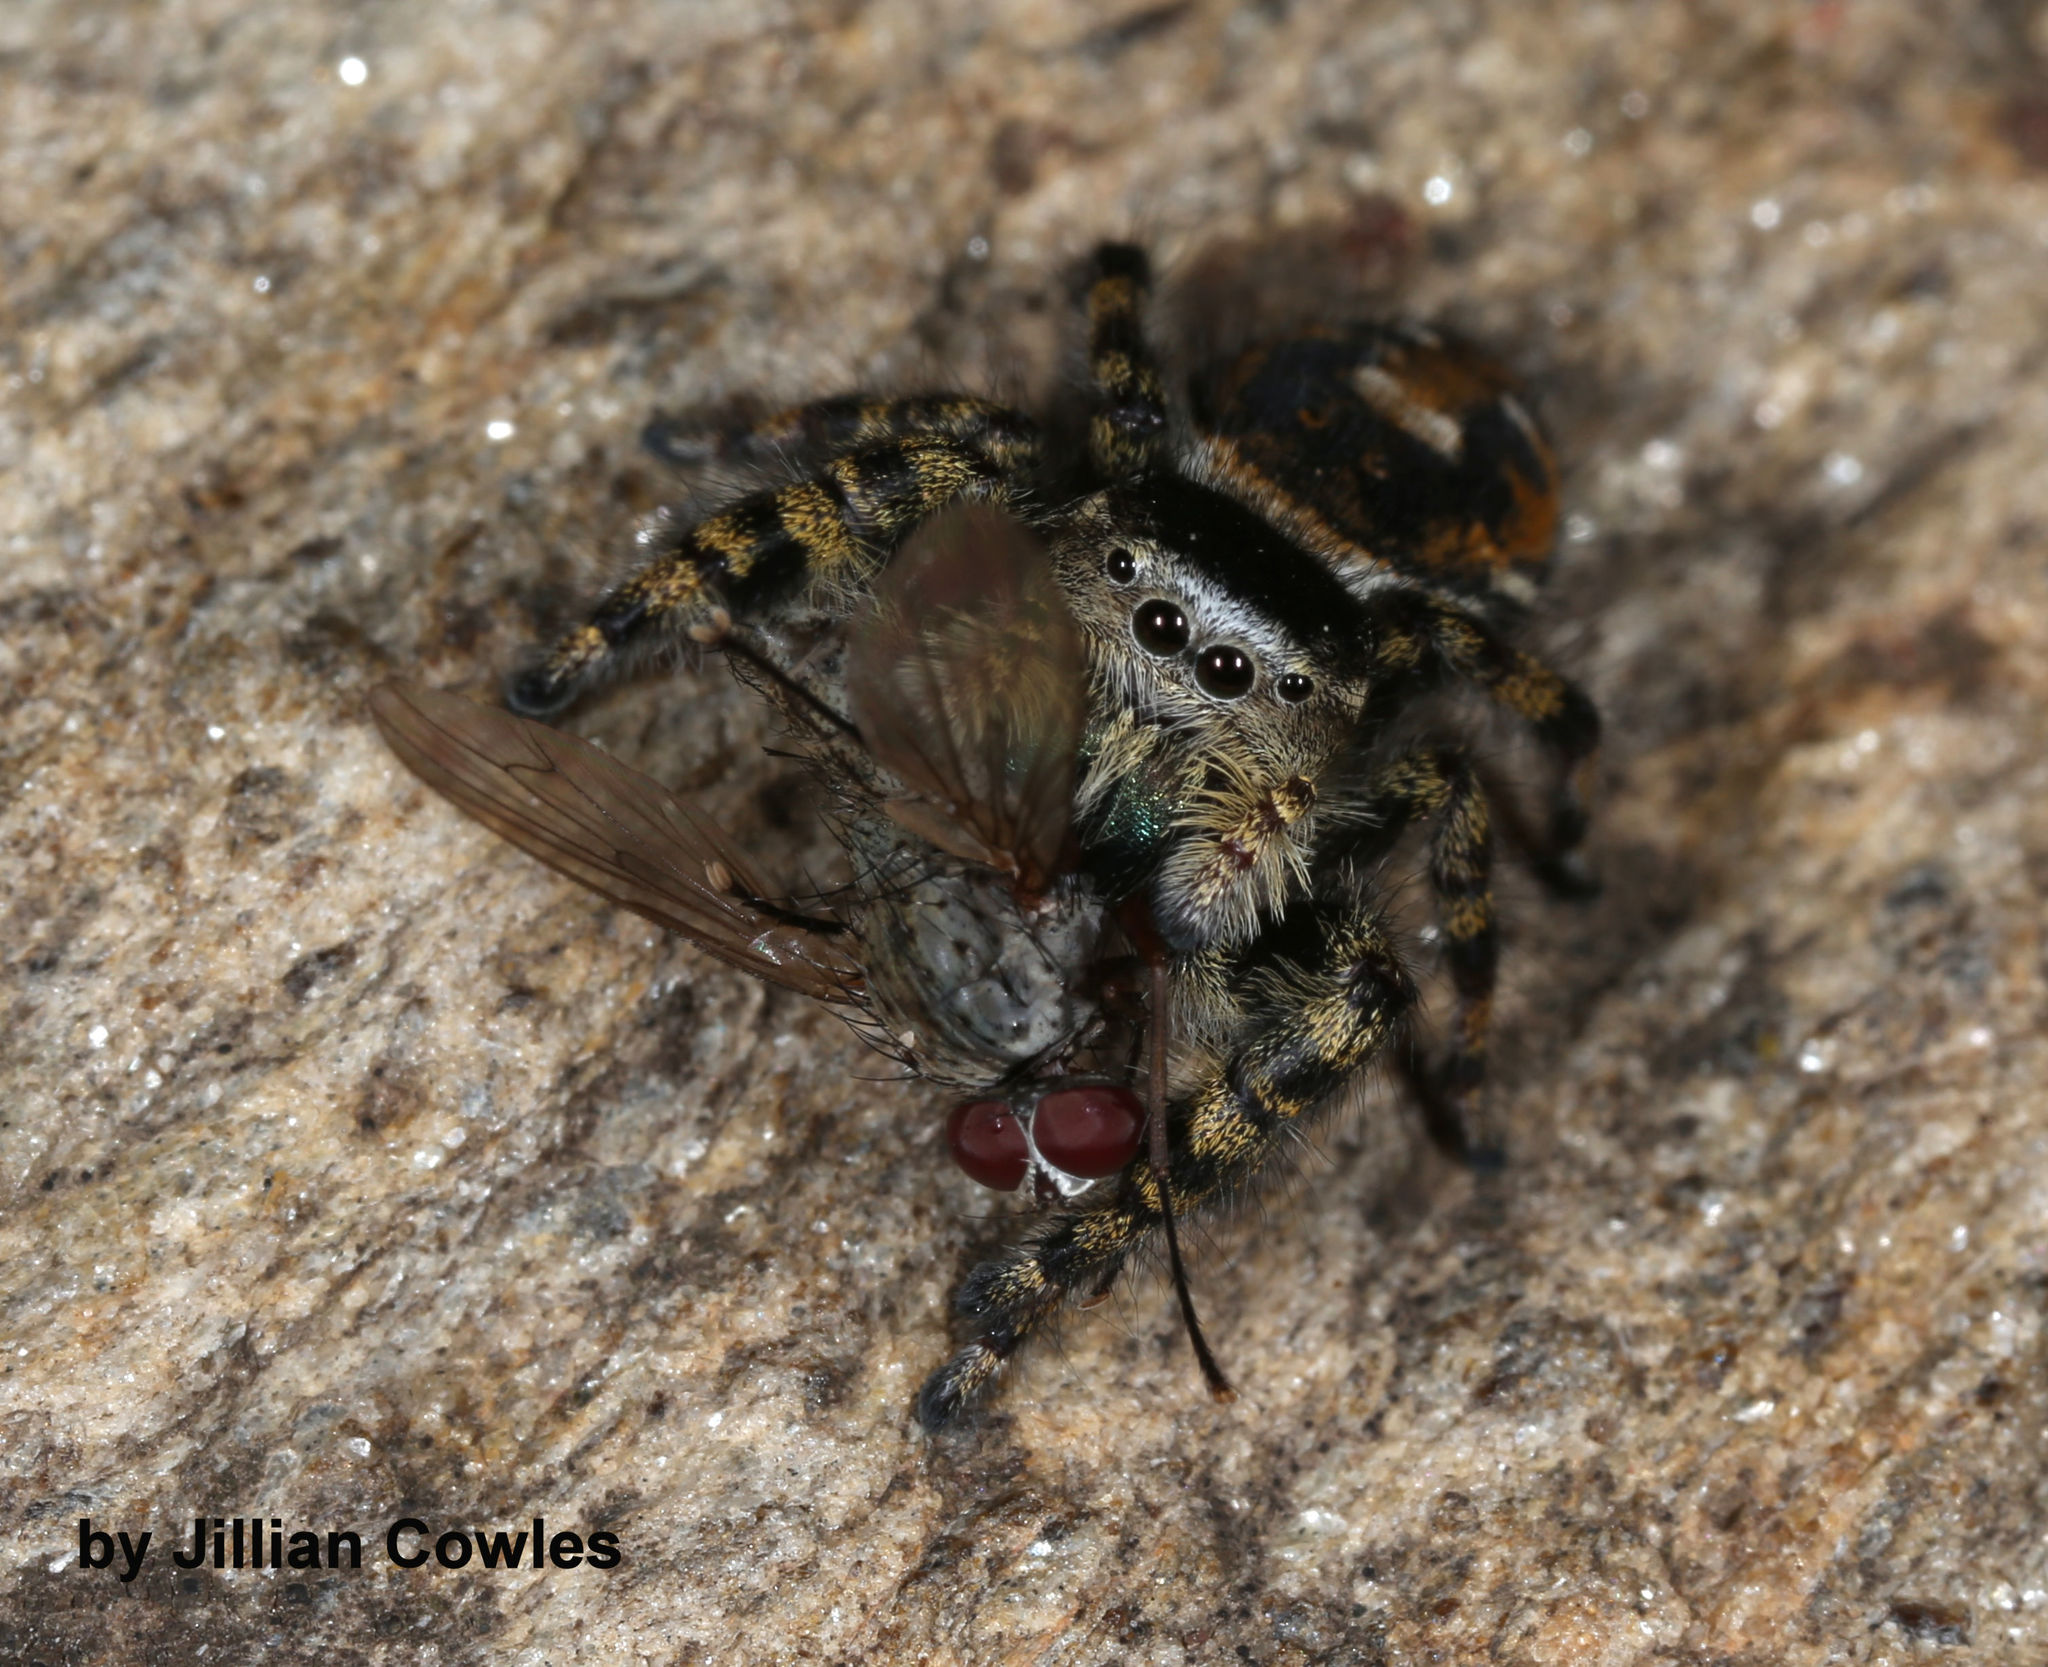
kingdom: Animalia
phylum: Arthropoda
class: Arachnida
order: Araneae
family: Salticidae
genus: Phidippus
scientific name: Phidippus tyrrelli
